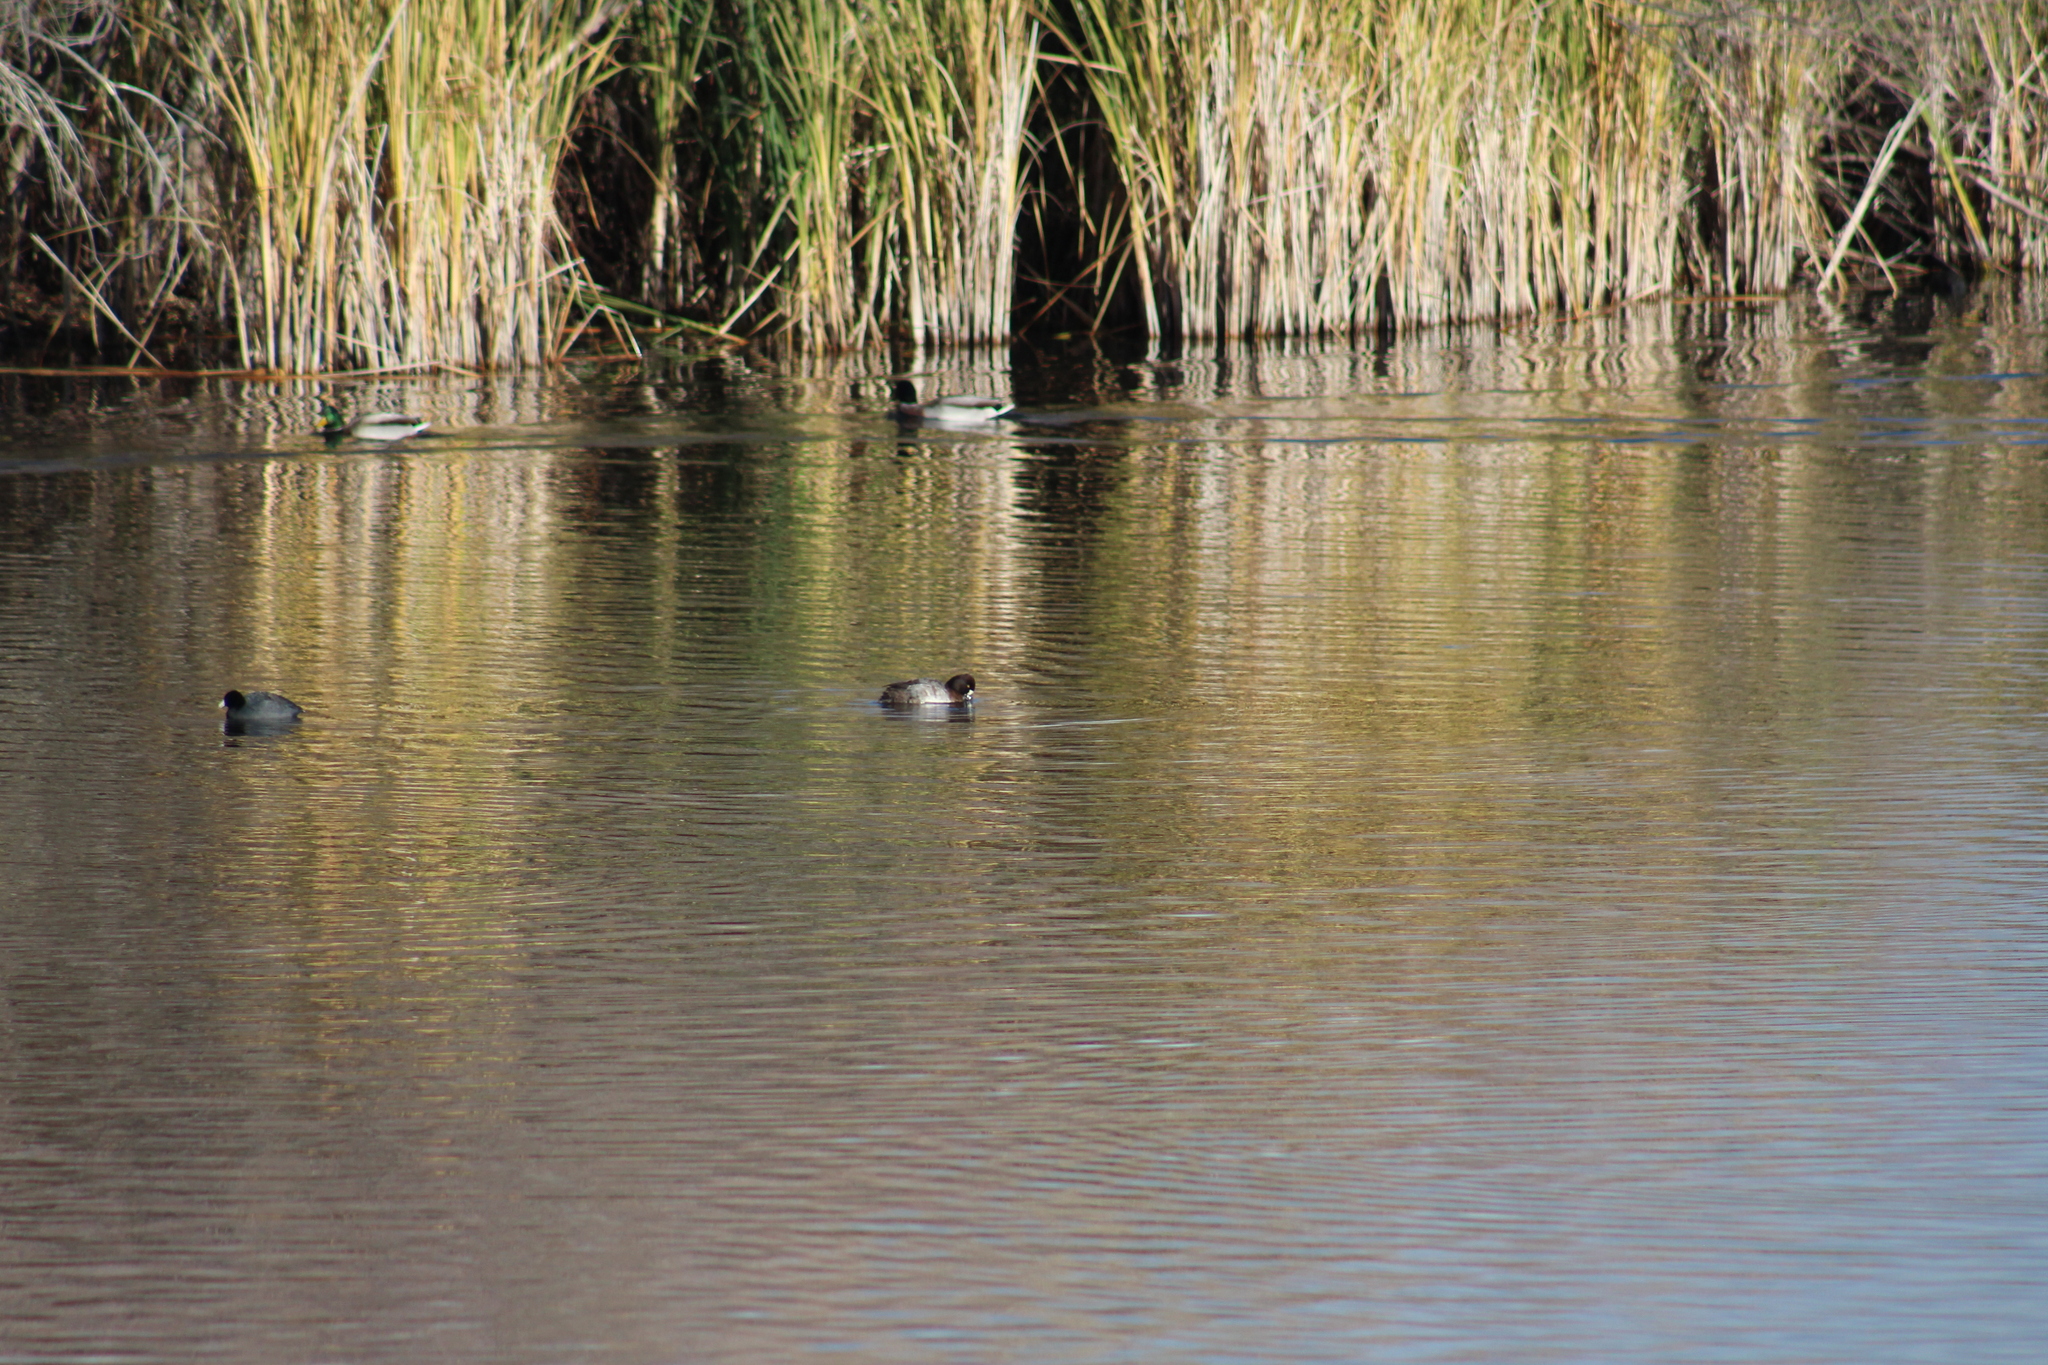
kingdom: Animalia
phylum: Chordata
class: Aves
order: Anseriformes
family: Anatidae
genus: Aythya
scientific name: Aythya affinis
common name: Lesser scaup
